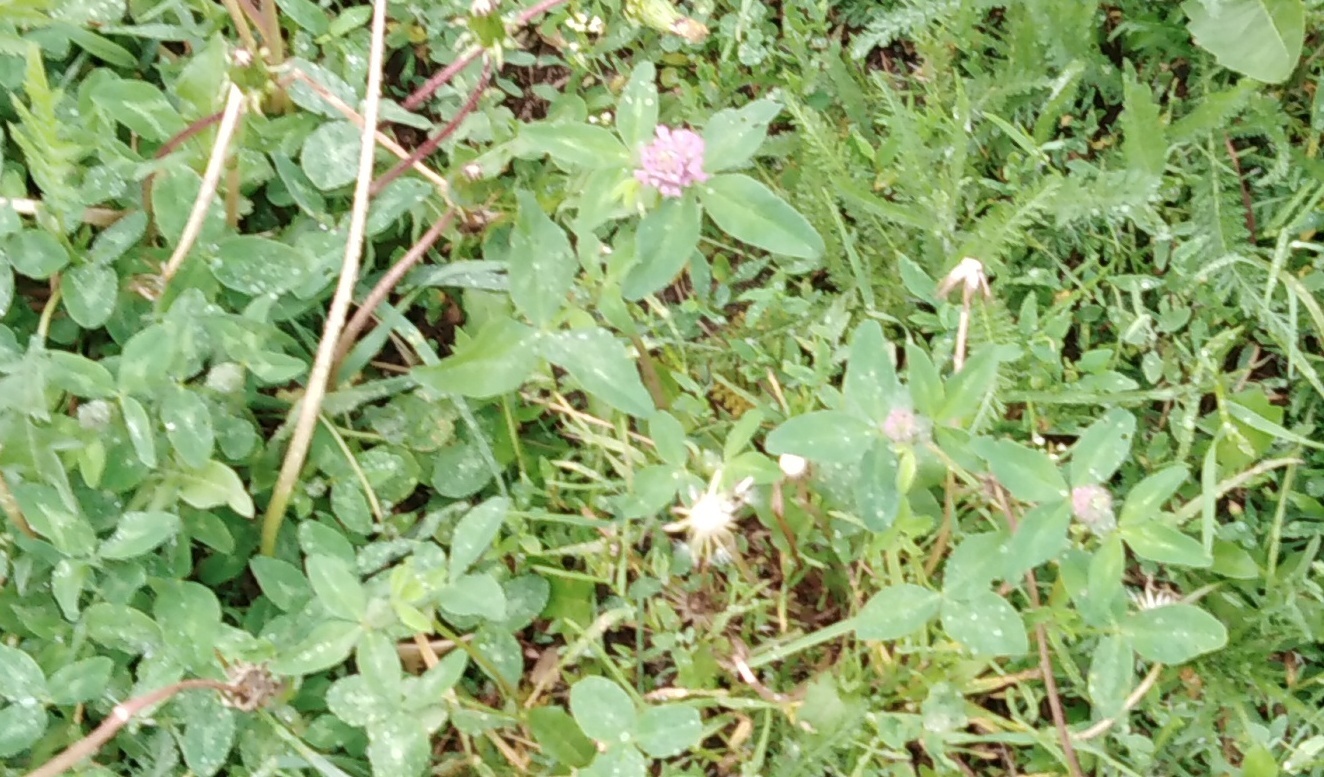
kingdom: Plantae
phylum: Tracheophyta
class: Magnoliopsida
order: Fabales
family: Fabaceae
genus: Trifolium
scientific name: Trifolium pratense
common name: Red clover
